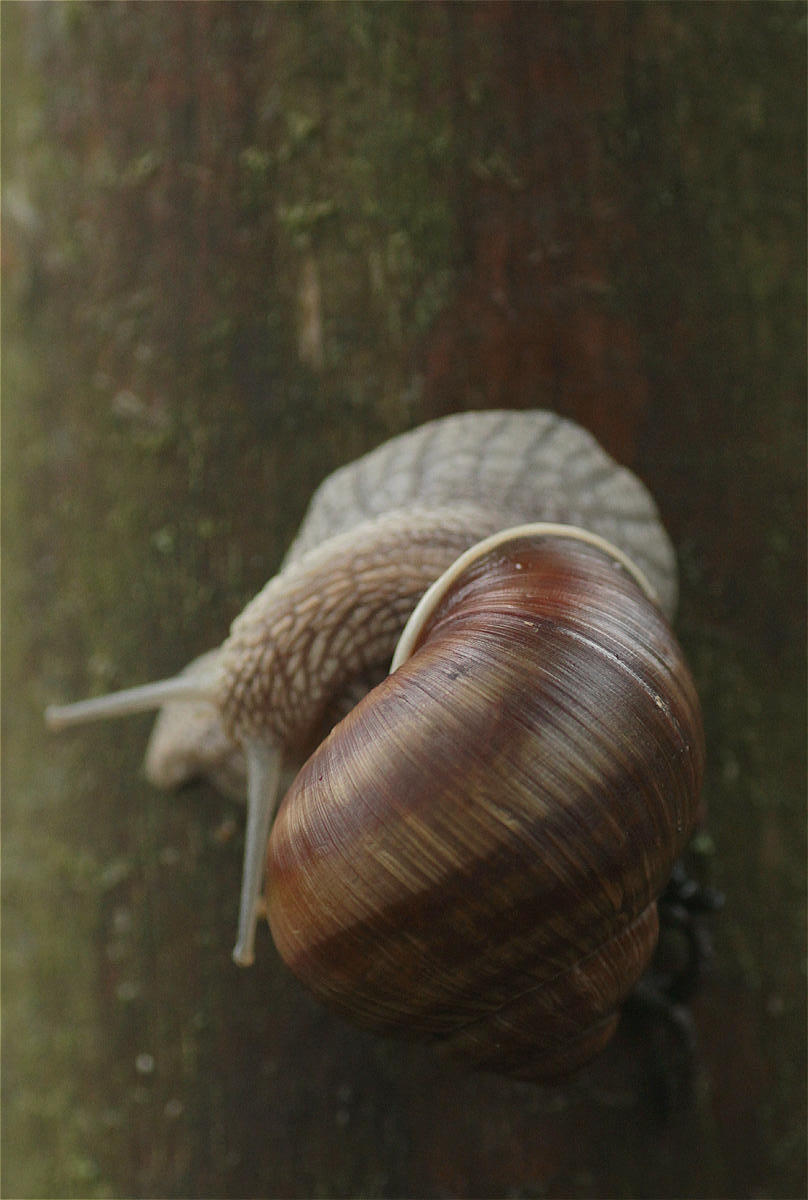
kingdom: Animalia
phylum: Mollusca
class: Gastropoda
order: Stylommatophora
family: Helicidae
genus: Helix
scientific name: Helix pomatia
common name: Roman snail
